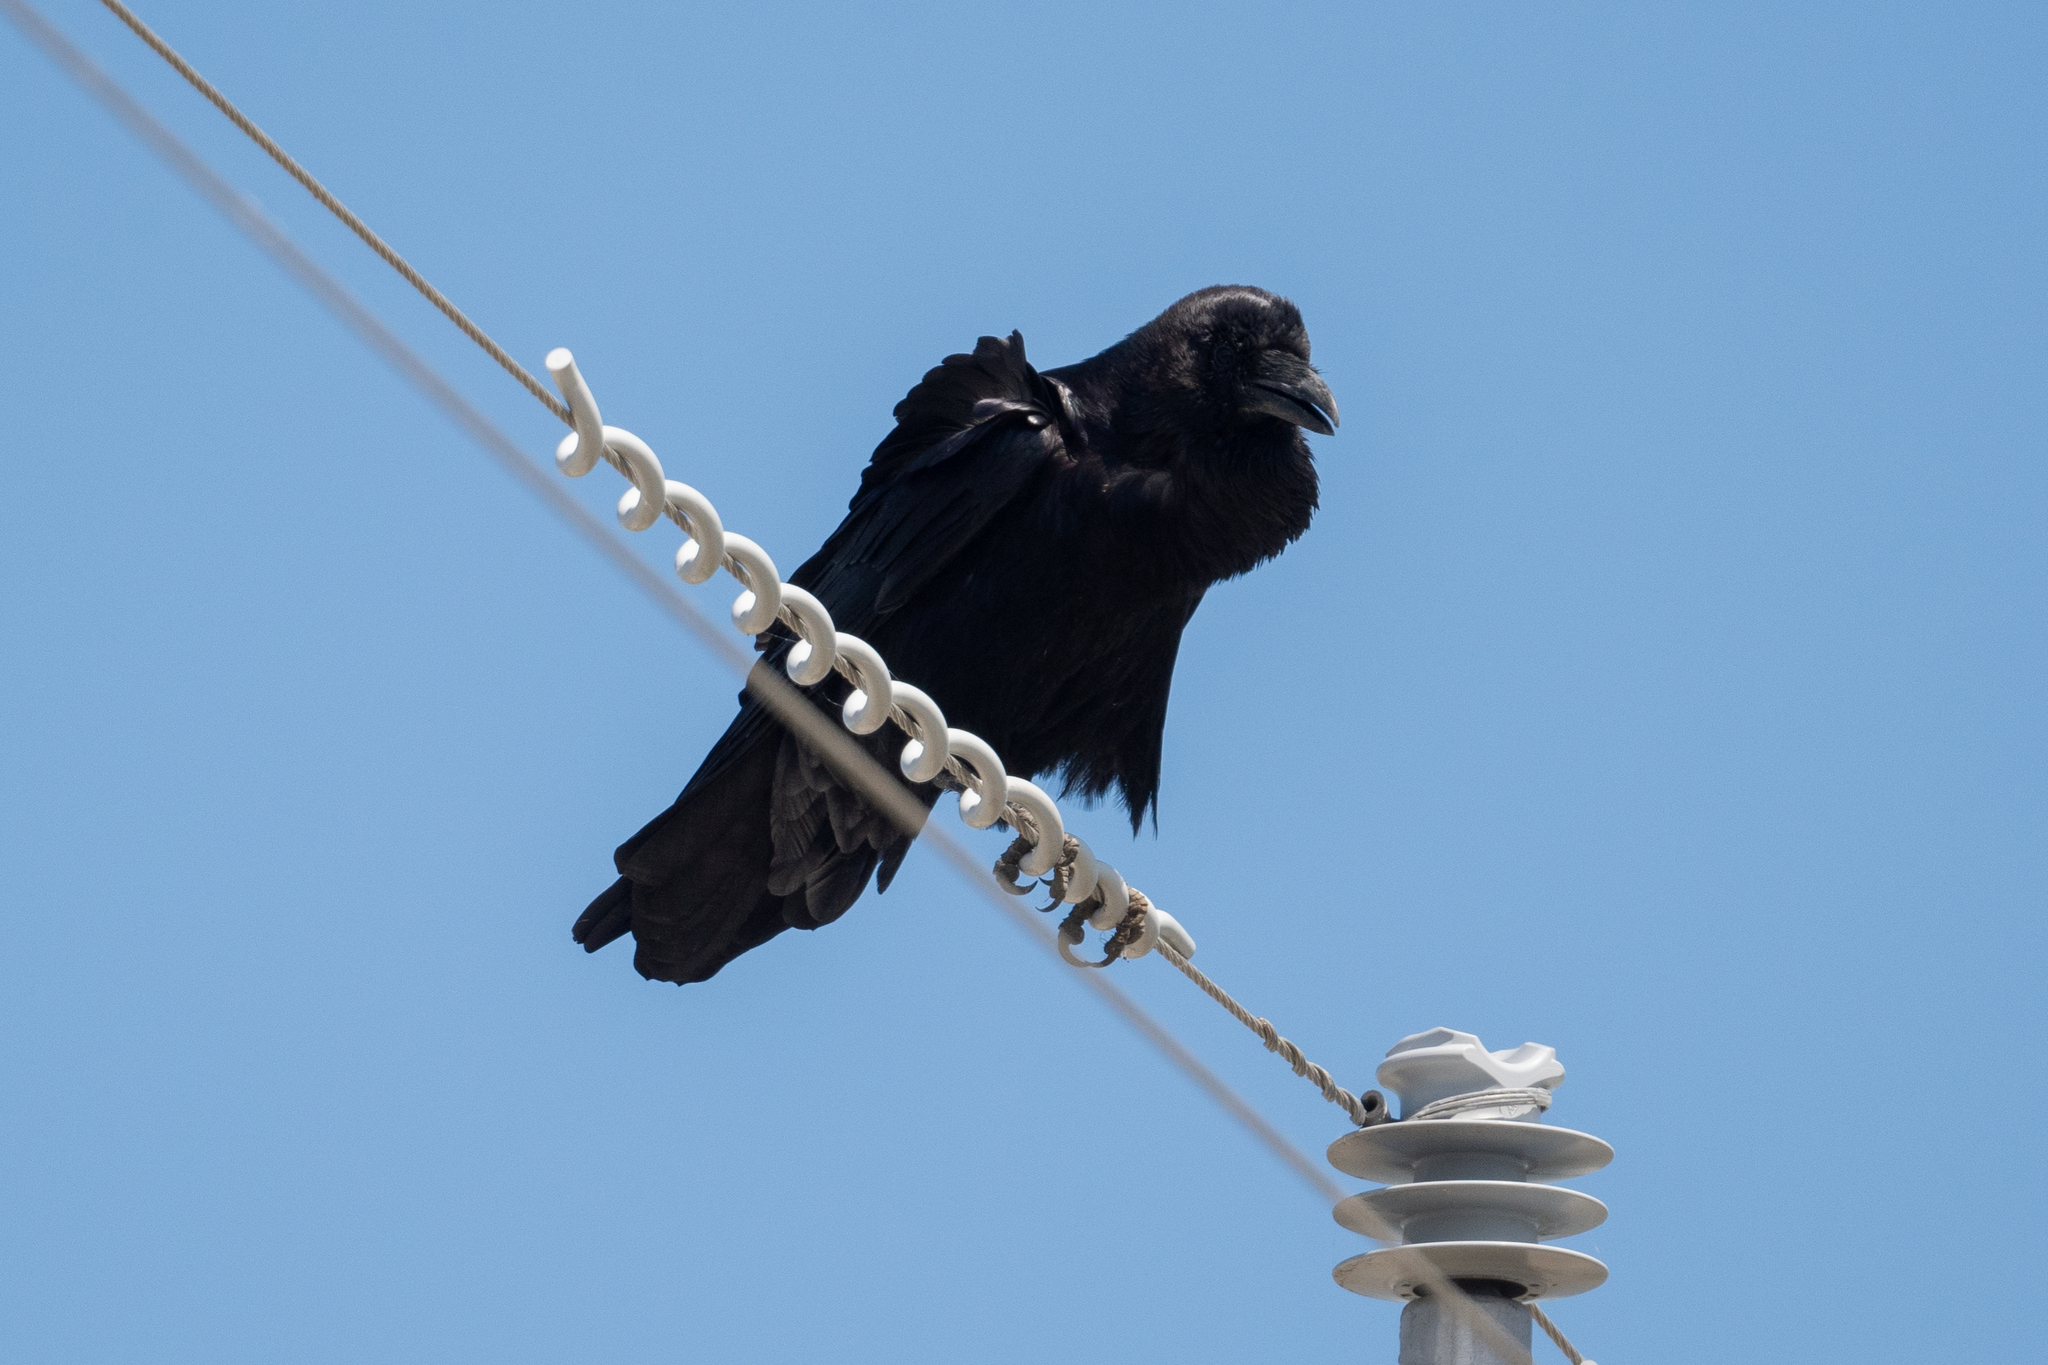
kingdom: Animalia
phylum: Chordata
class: Aves
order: Passeriformes
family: Corvidae
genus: Corvus
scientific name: Corvus corax
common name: Common raven
